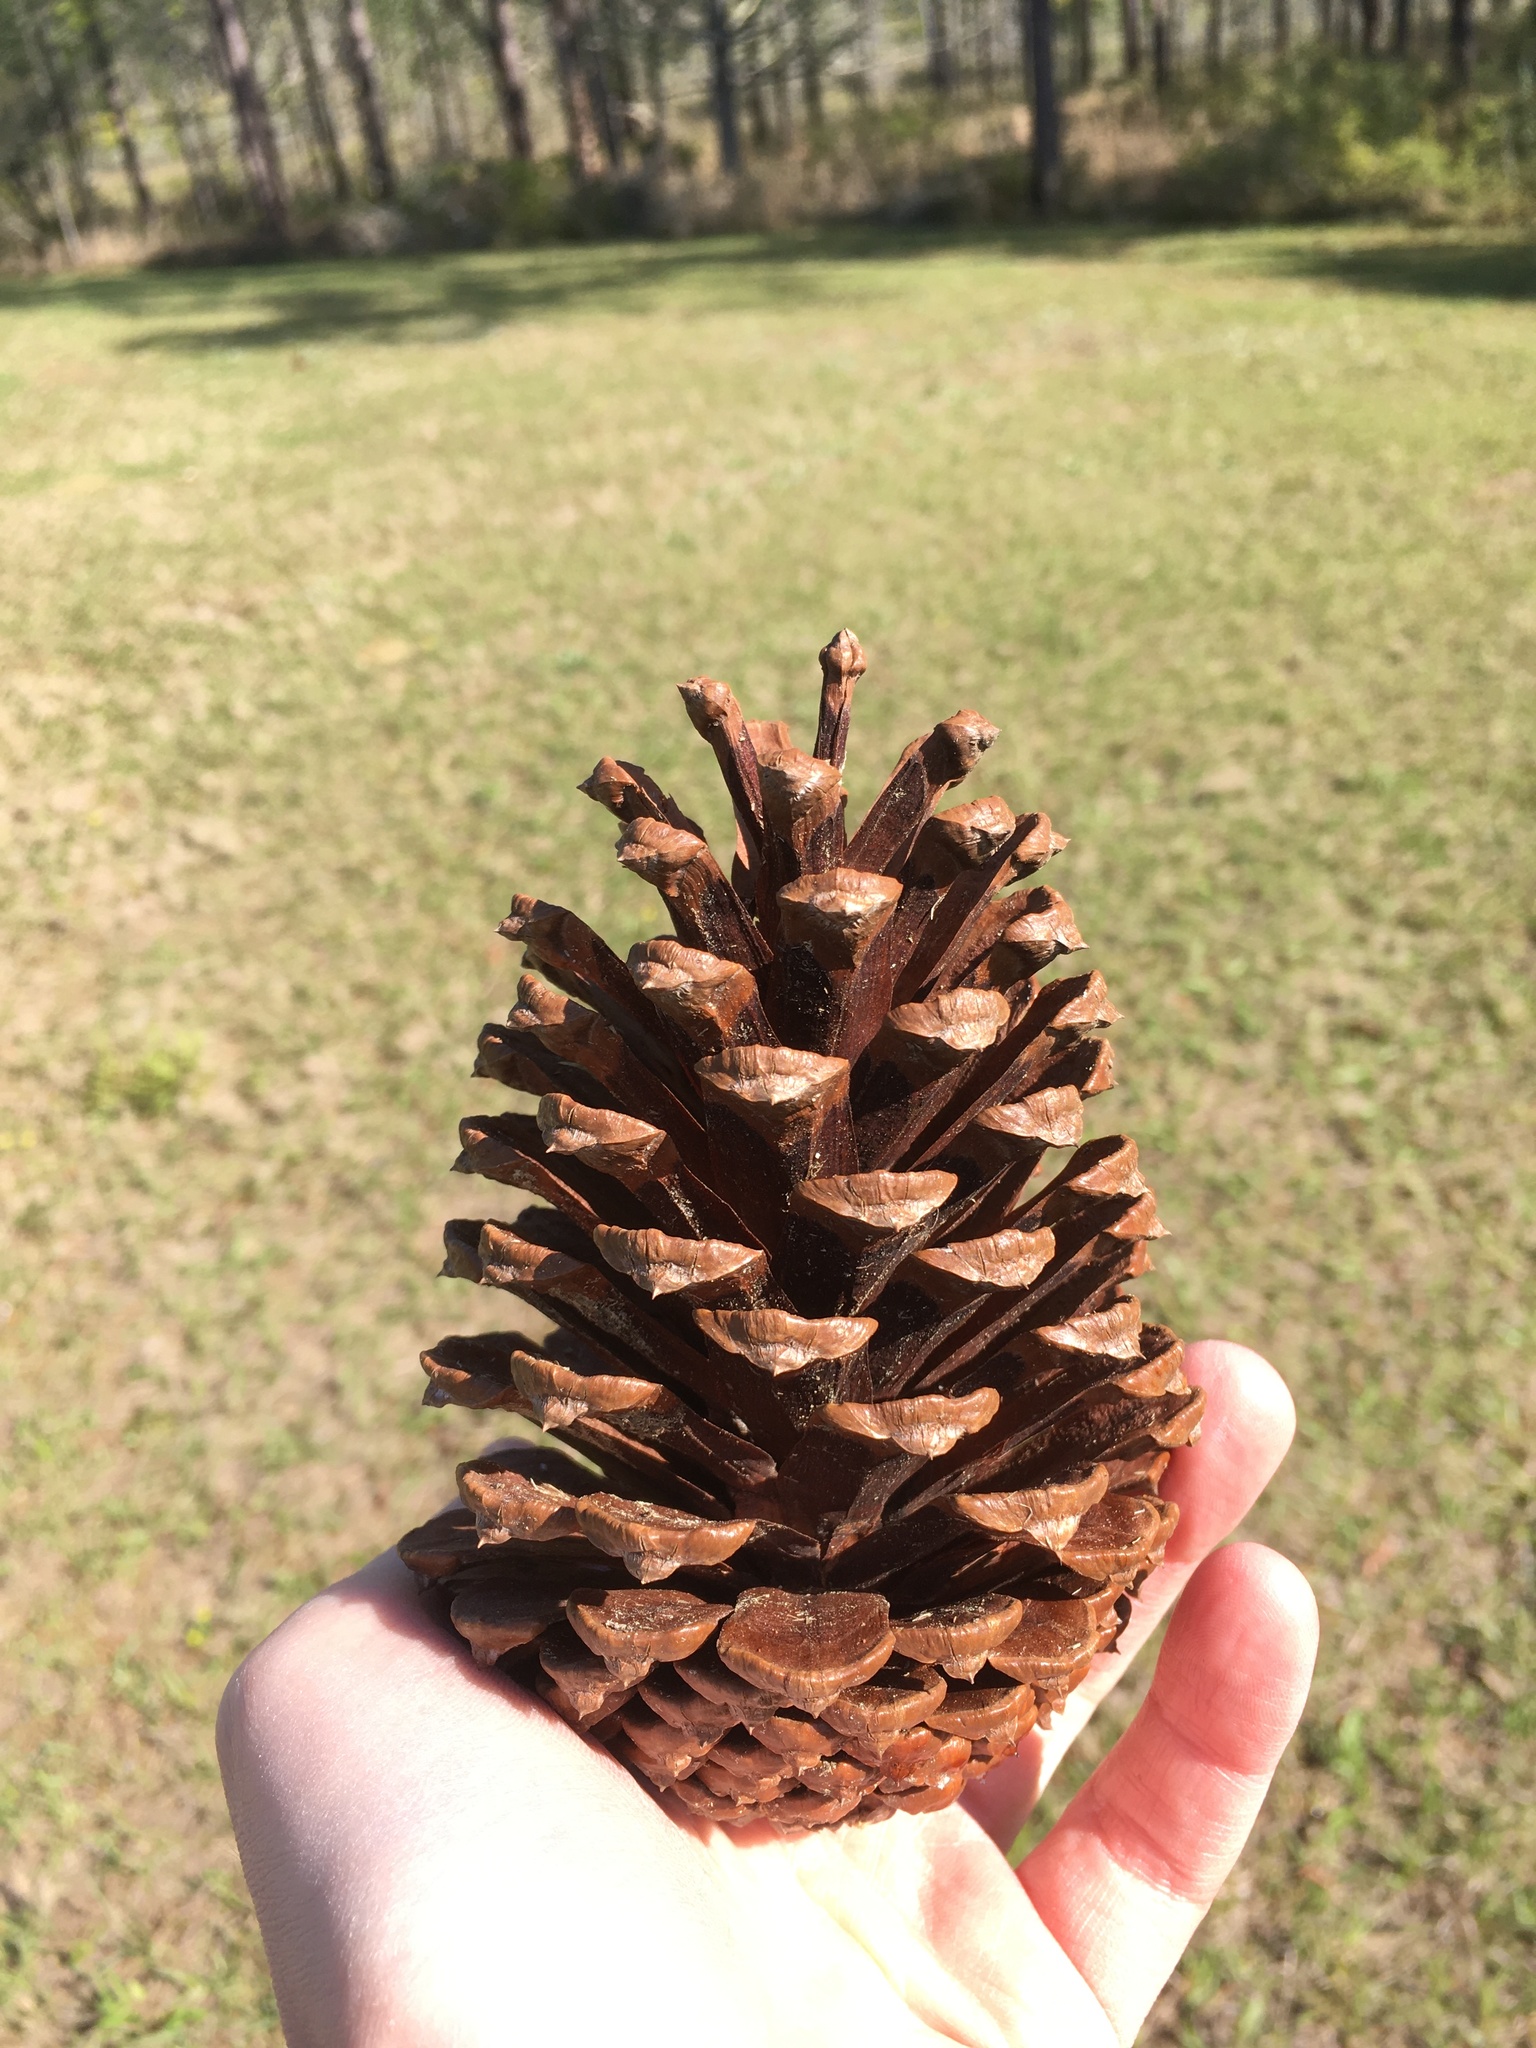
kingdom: Plantae
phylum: Tracheophyta
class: Pinopsida
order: Pinales
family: Pinaceae
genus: Pinus
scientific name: Pinus palustris
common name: Longleaf pine
